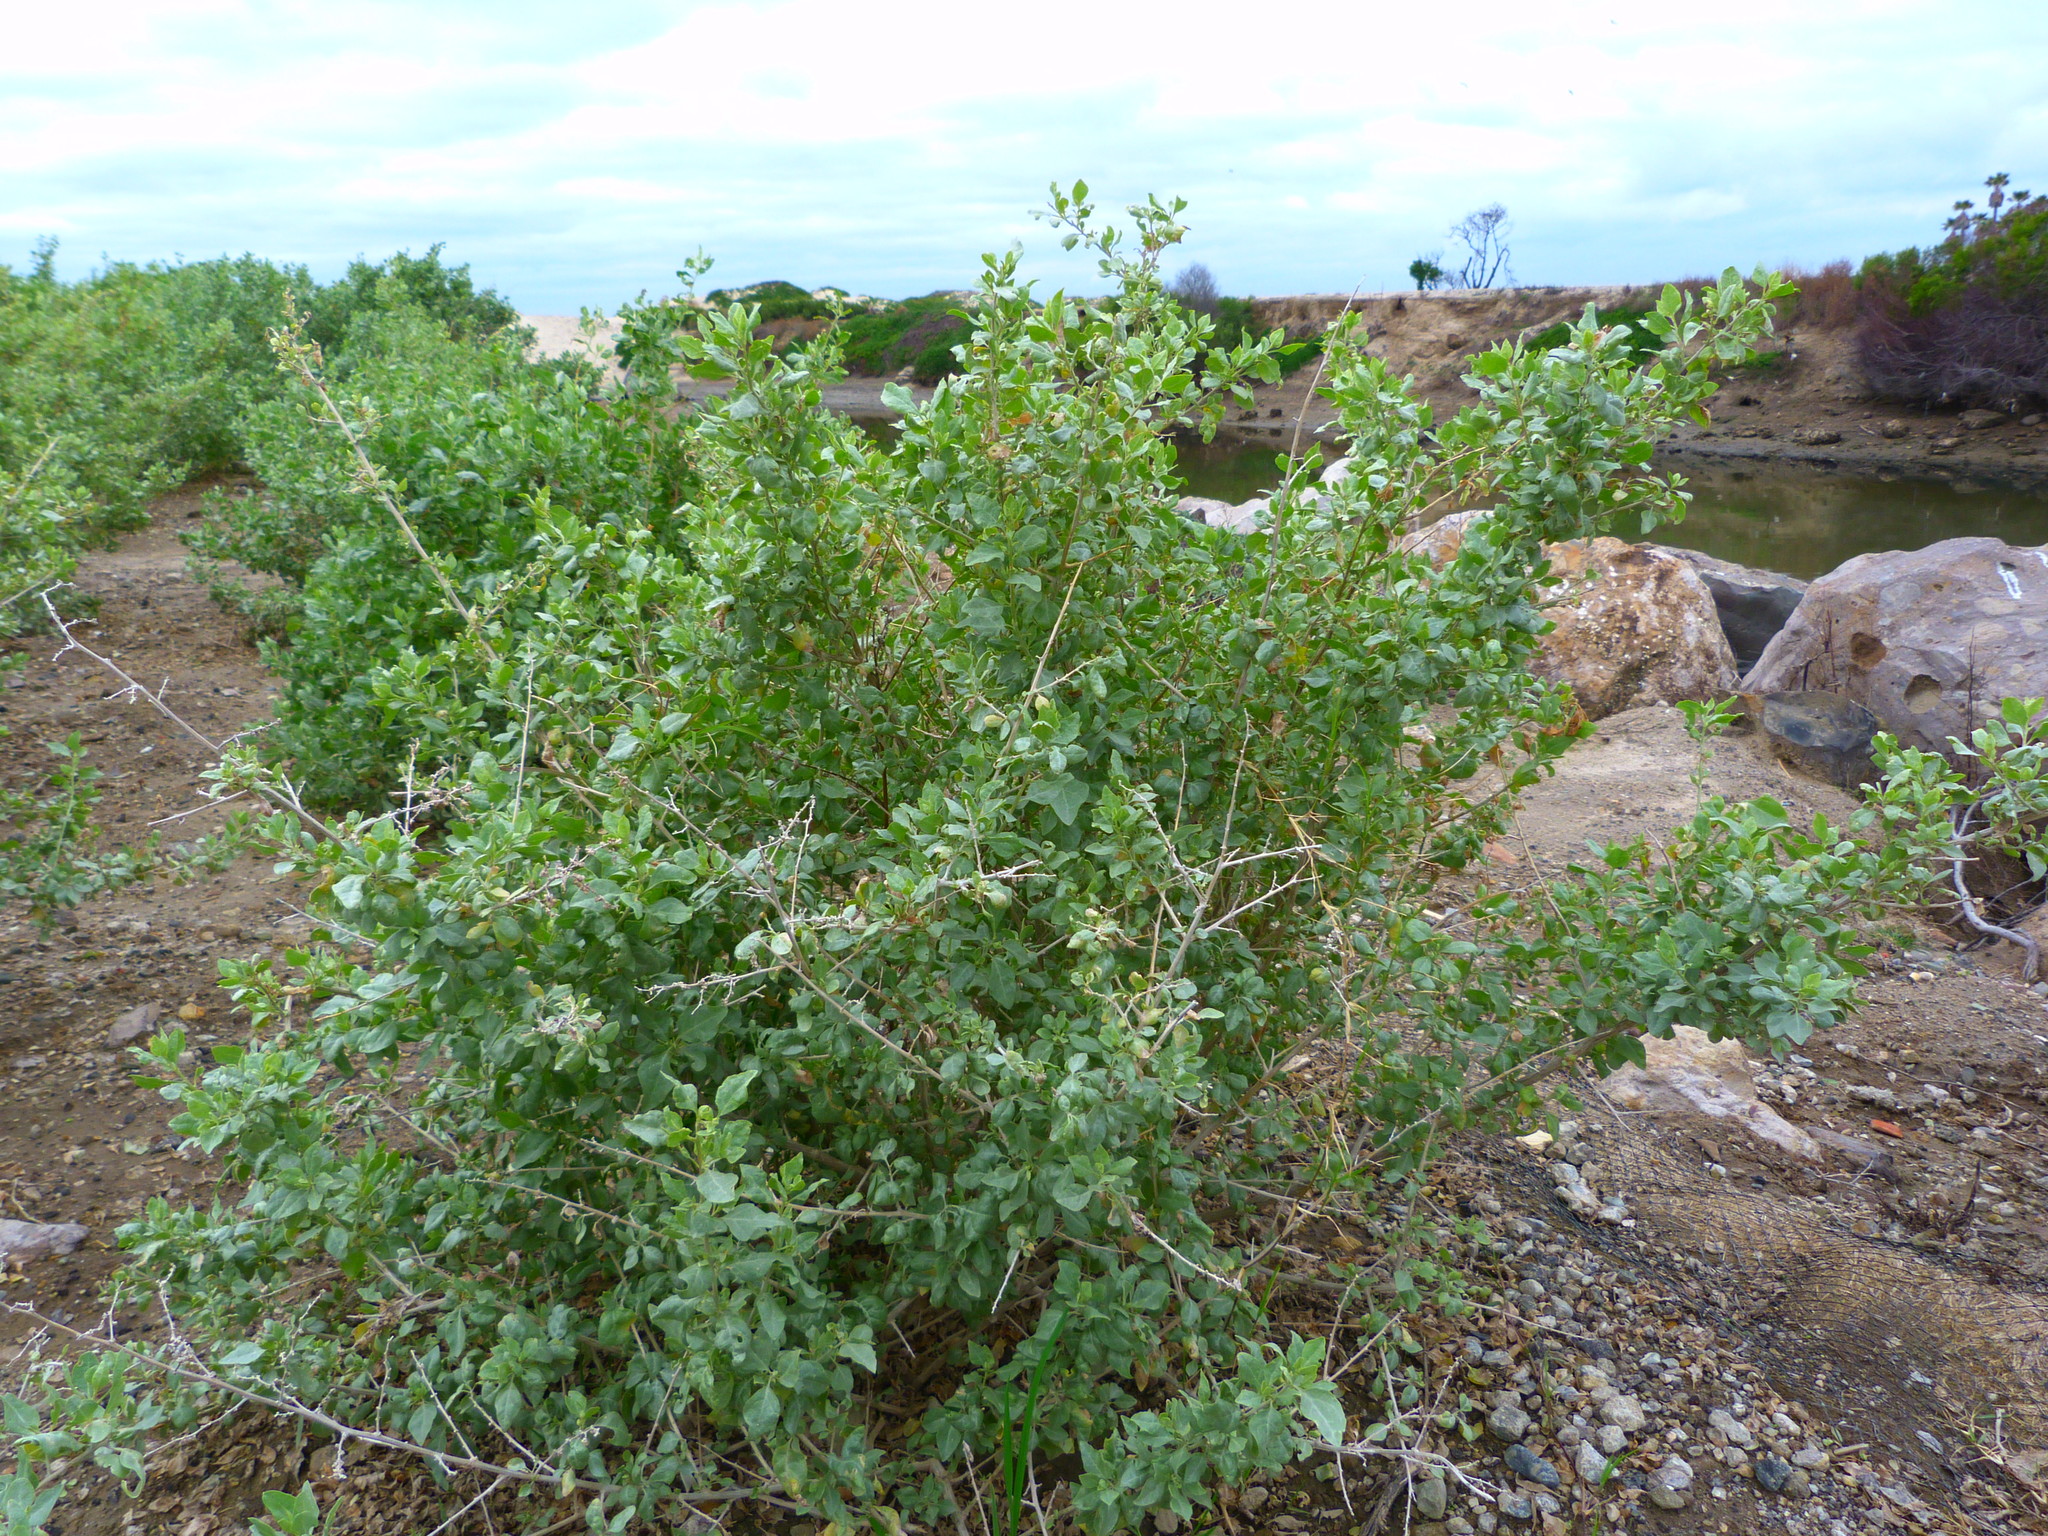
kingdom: Plantae
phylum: Tracheophyta
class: Magnoliopsida
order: Caryophyllales
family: Amaranthaceae
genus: Atriplex
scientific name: Atriplex lentiformis
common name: Big saltbush
